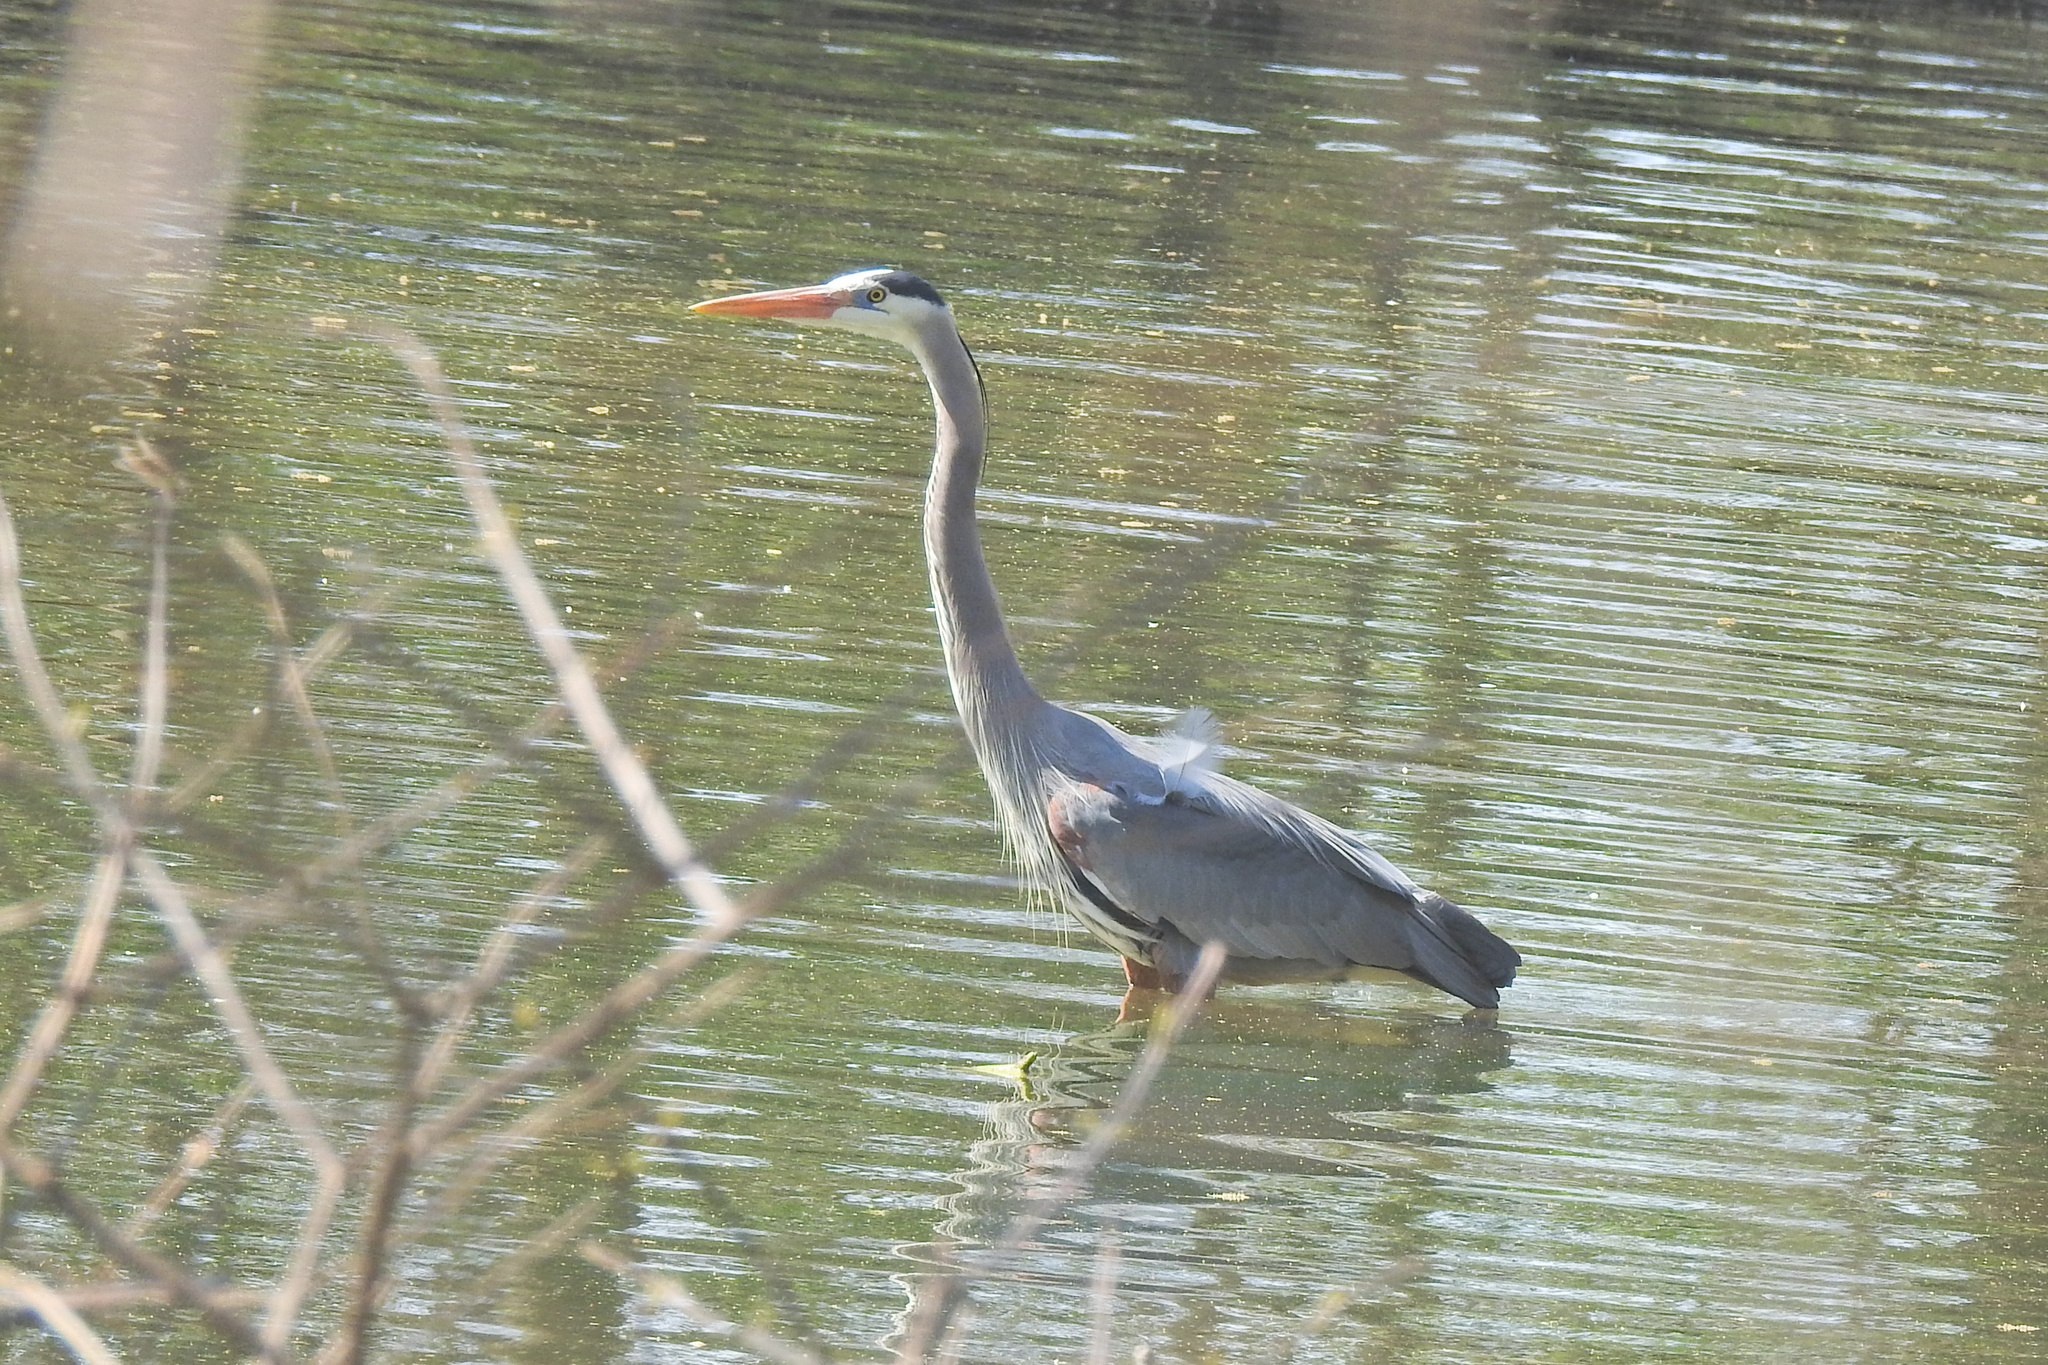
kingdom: Animalia
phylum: Chordata
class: Aves
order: Pelecaniformes
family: Ardeidae
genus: Ardea
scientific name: Ardea herodias
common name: Great blue heron
